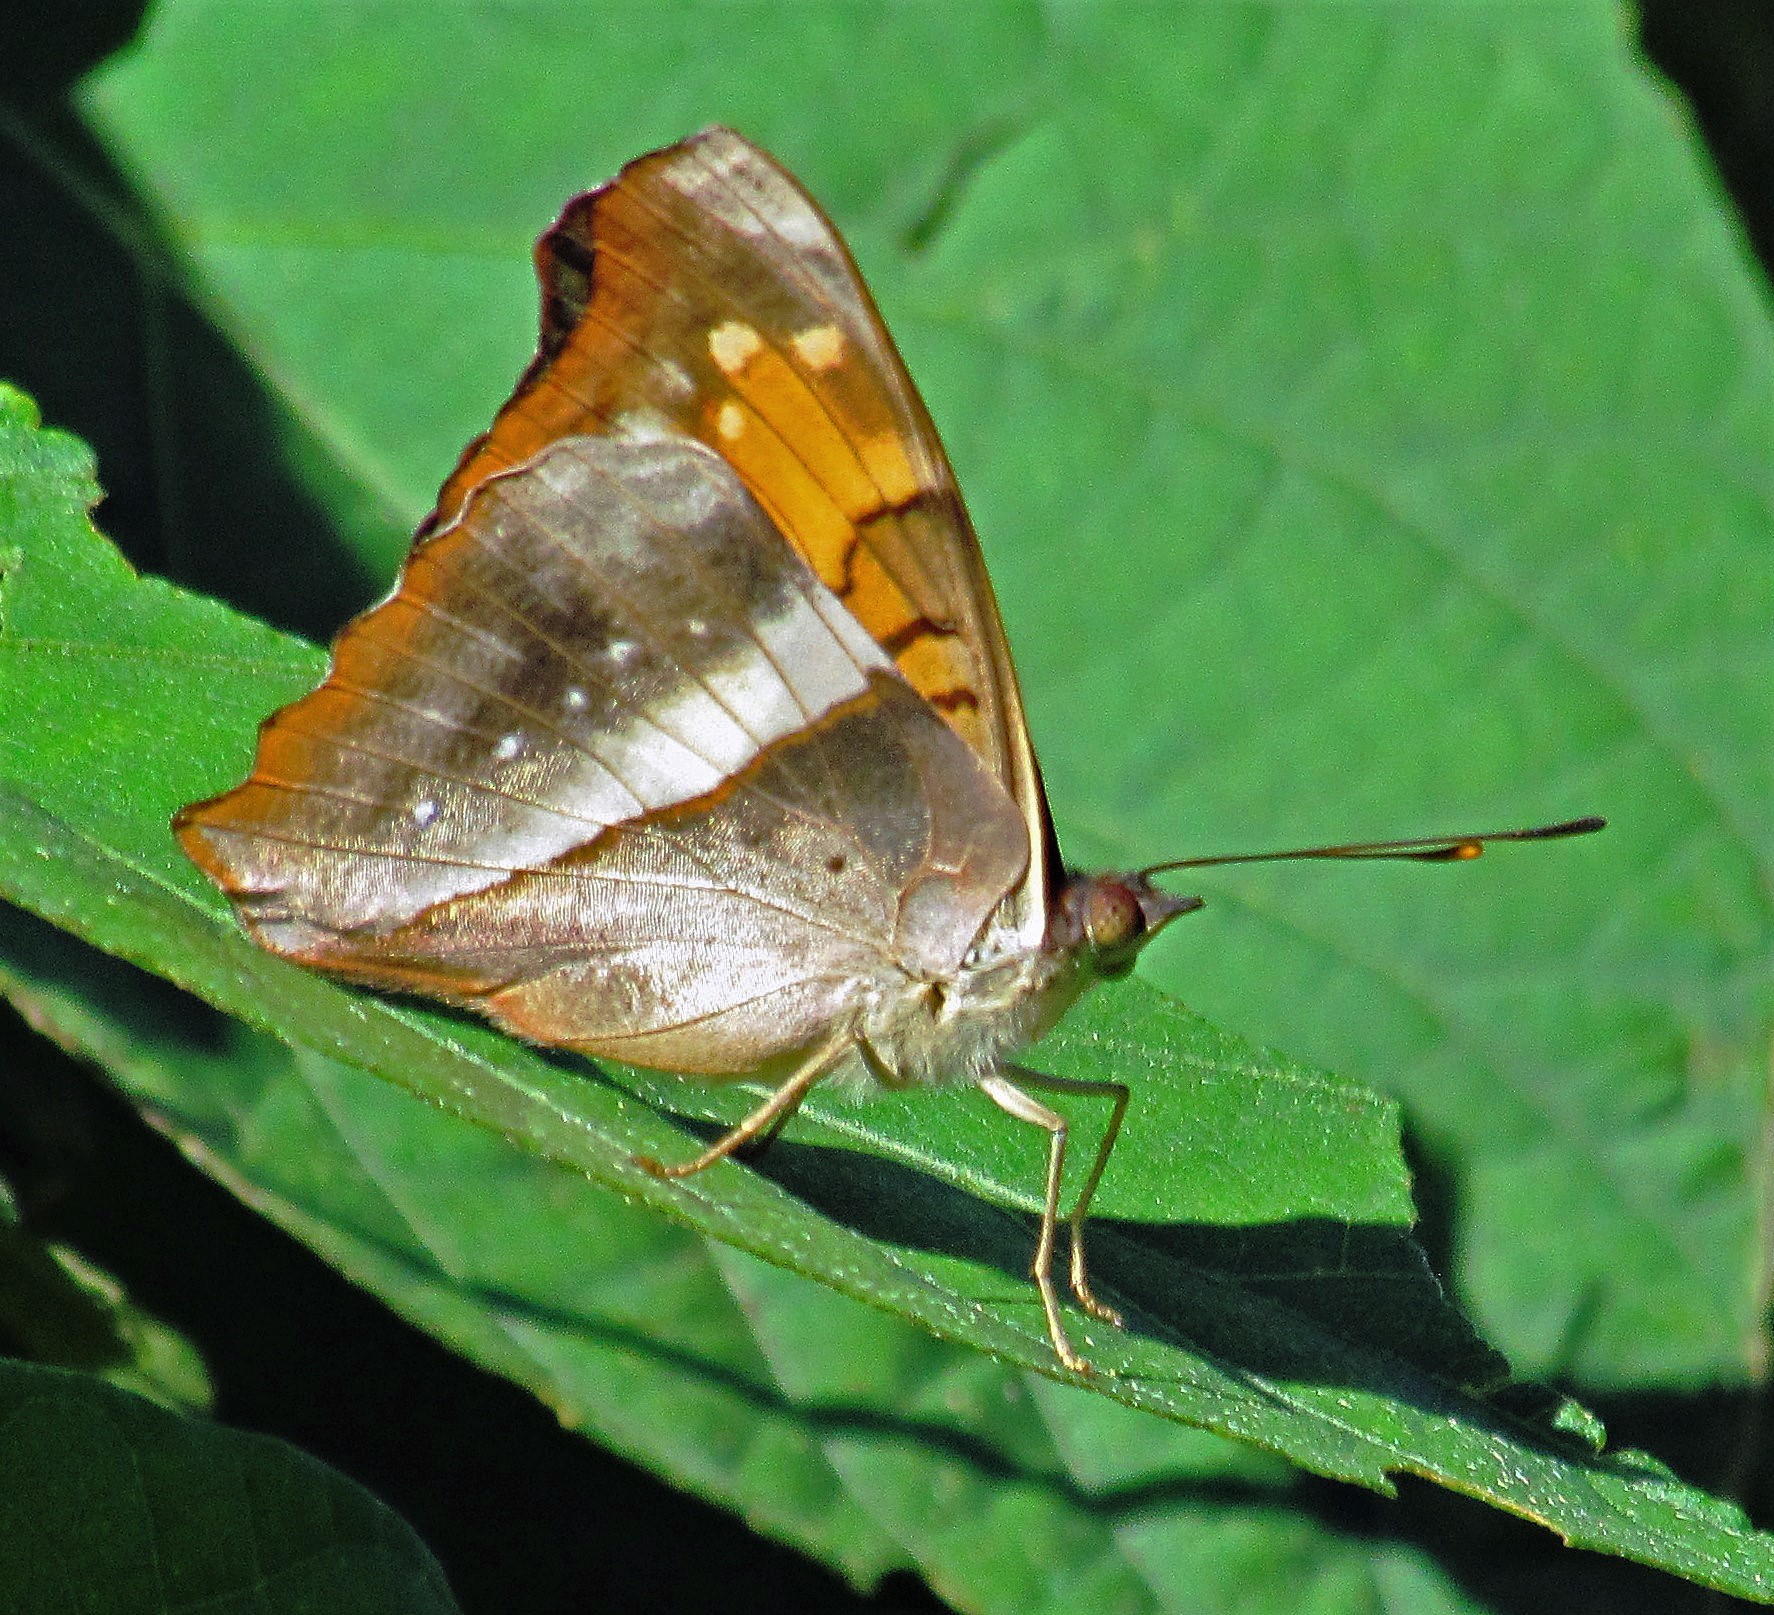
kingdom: Animalia
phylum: Arthropoda
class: Insecta
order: Lepidoptera
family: Nymphalidae
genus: Doxocopa
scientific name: Doxocopa laurentia
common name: Turquoise emperor
